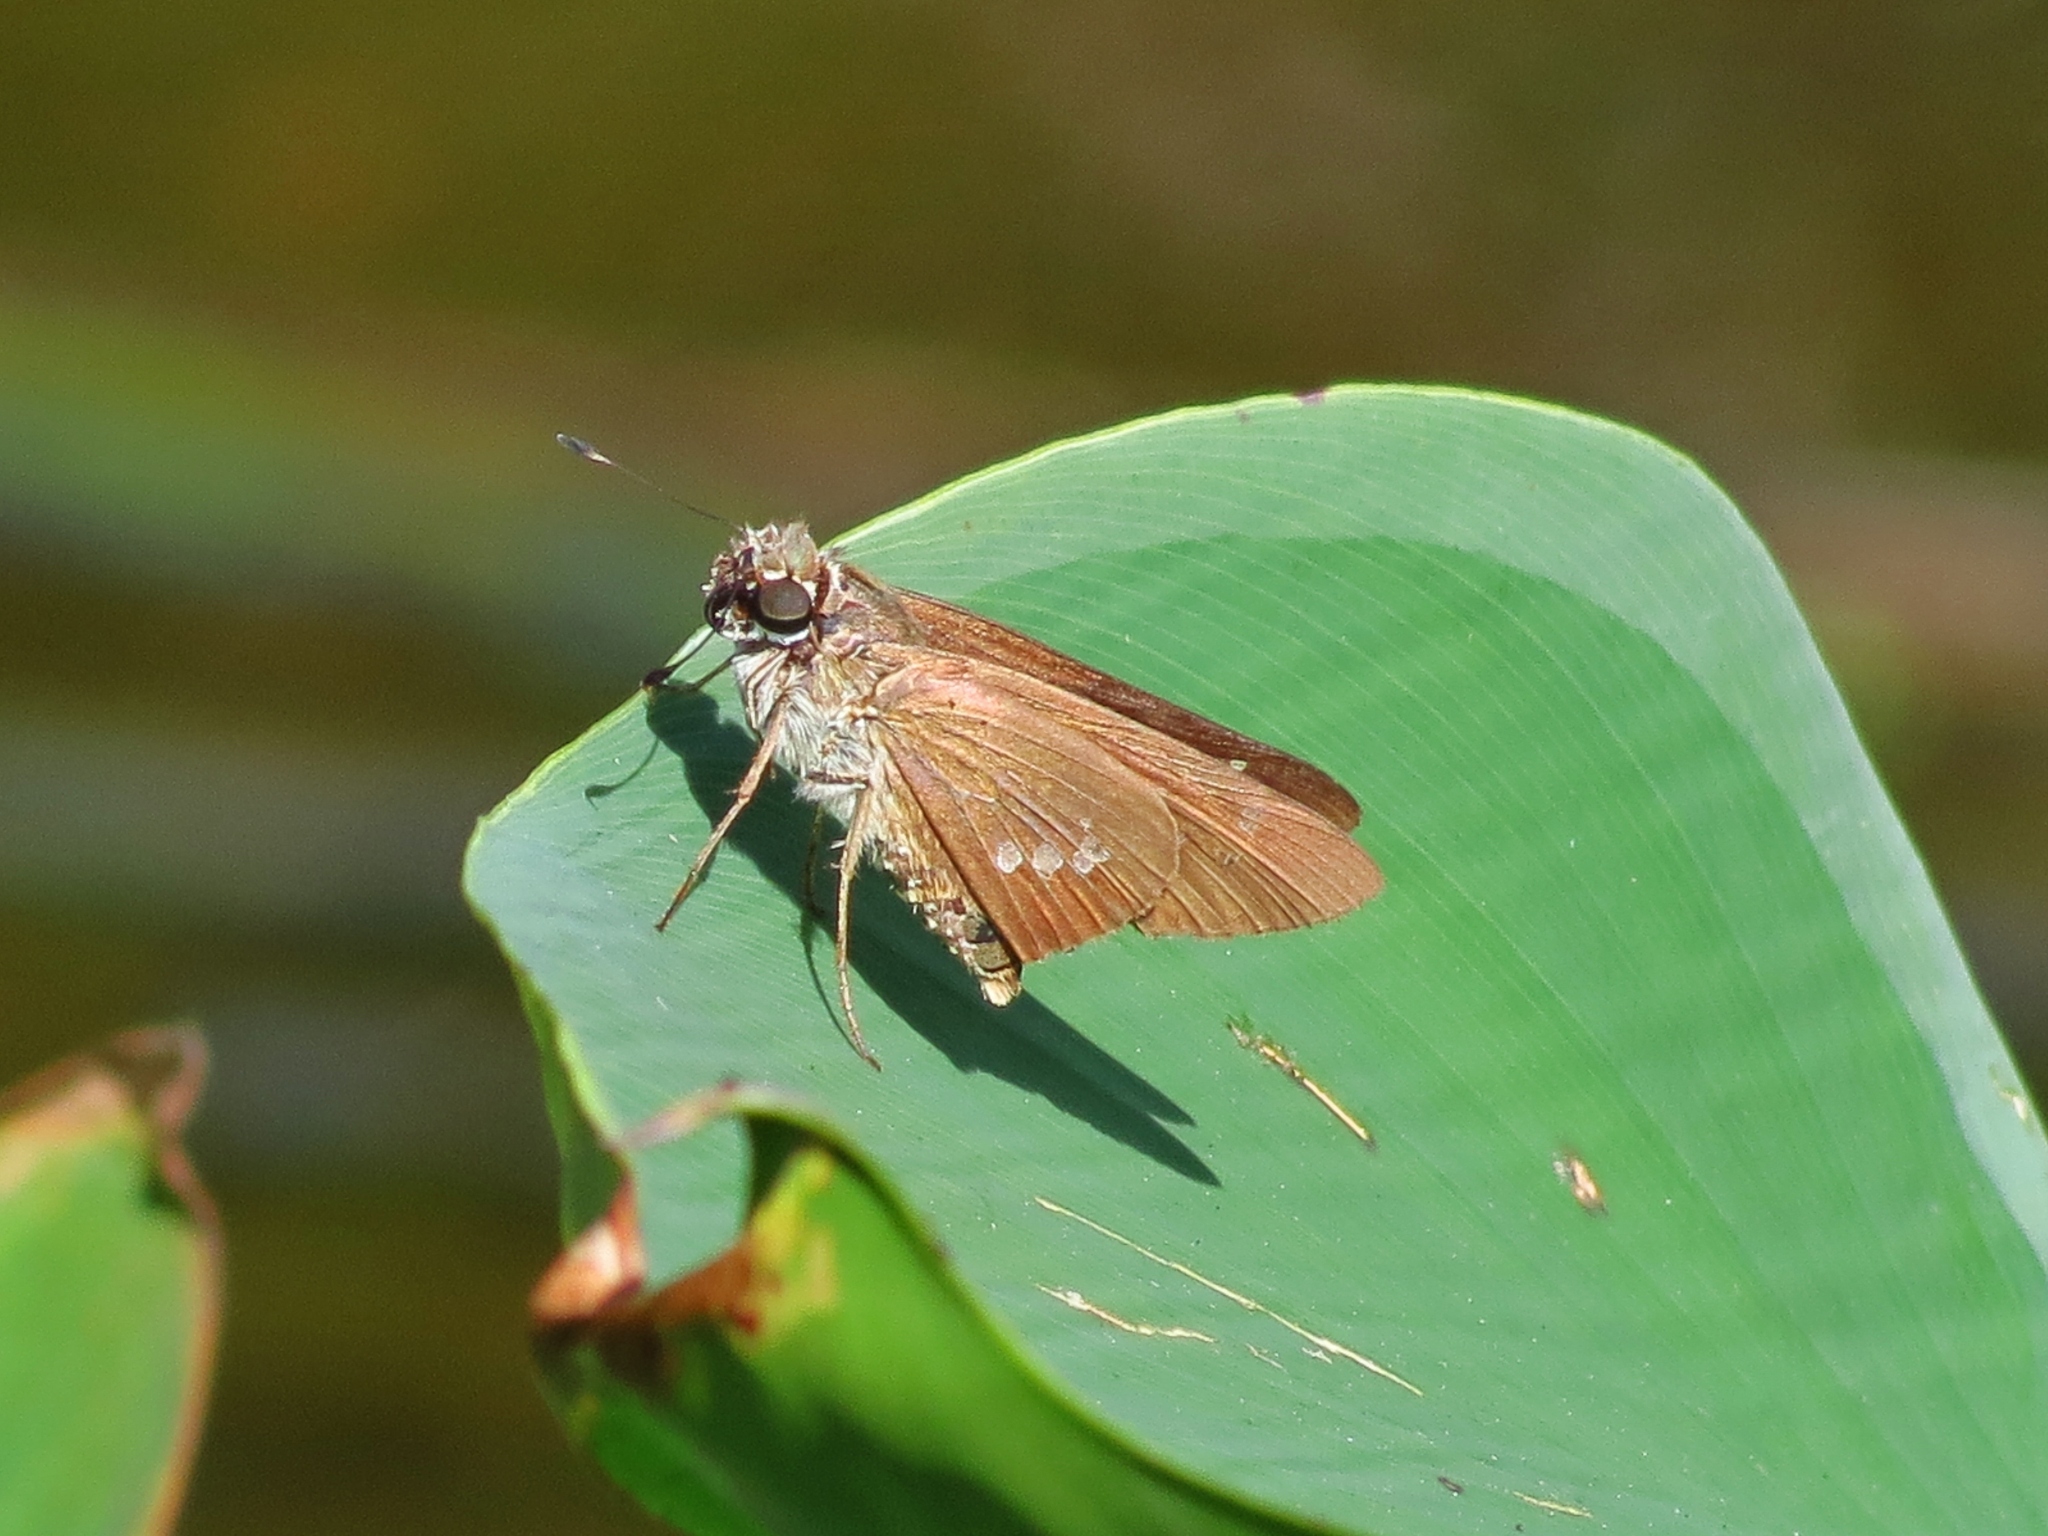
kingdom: Animalia
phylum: Arthropoda
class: Insecta
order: Lepidoptera
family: Hesperiidae
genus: Calpodes
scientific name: Calpodes ethlius
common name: Brazilian skipper
